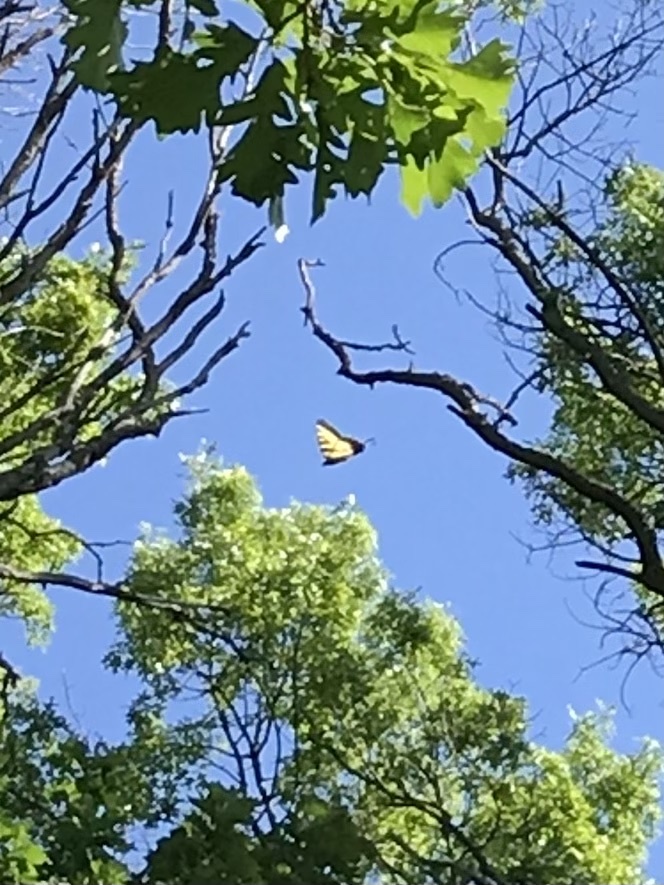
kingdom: Animalia
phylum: Arthropoda
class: Insecta
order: Lepidoptera
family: Papilionidae
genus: Papilio
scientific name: Papilio glaucus
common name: Tiger swallowtail
